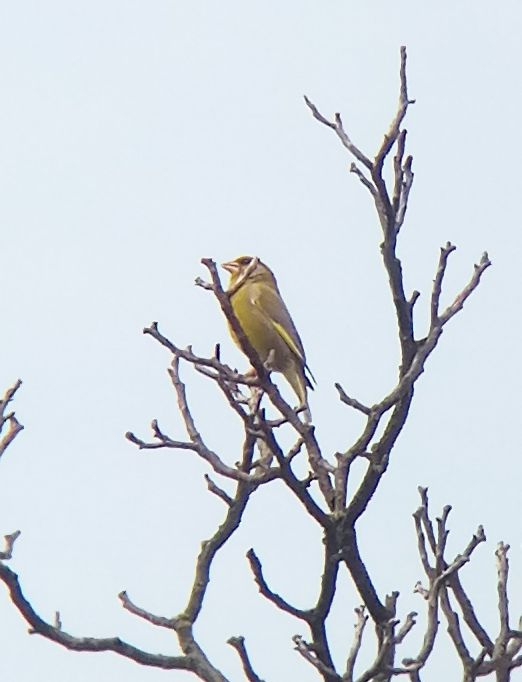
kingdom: Plantae
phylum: Tracheophyta
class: Liliopsida
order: Poales
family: Poaceae
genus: Chloris
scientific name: Chloris chloris
